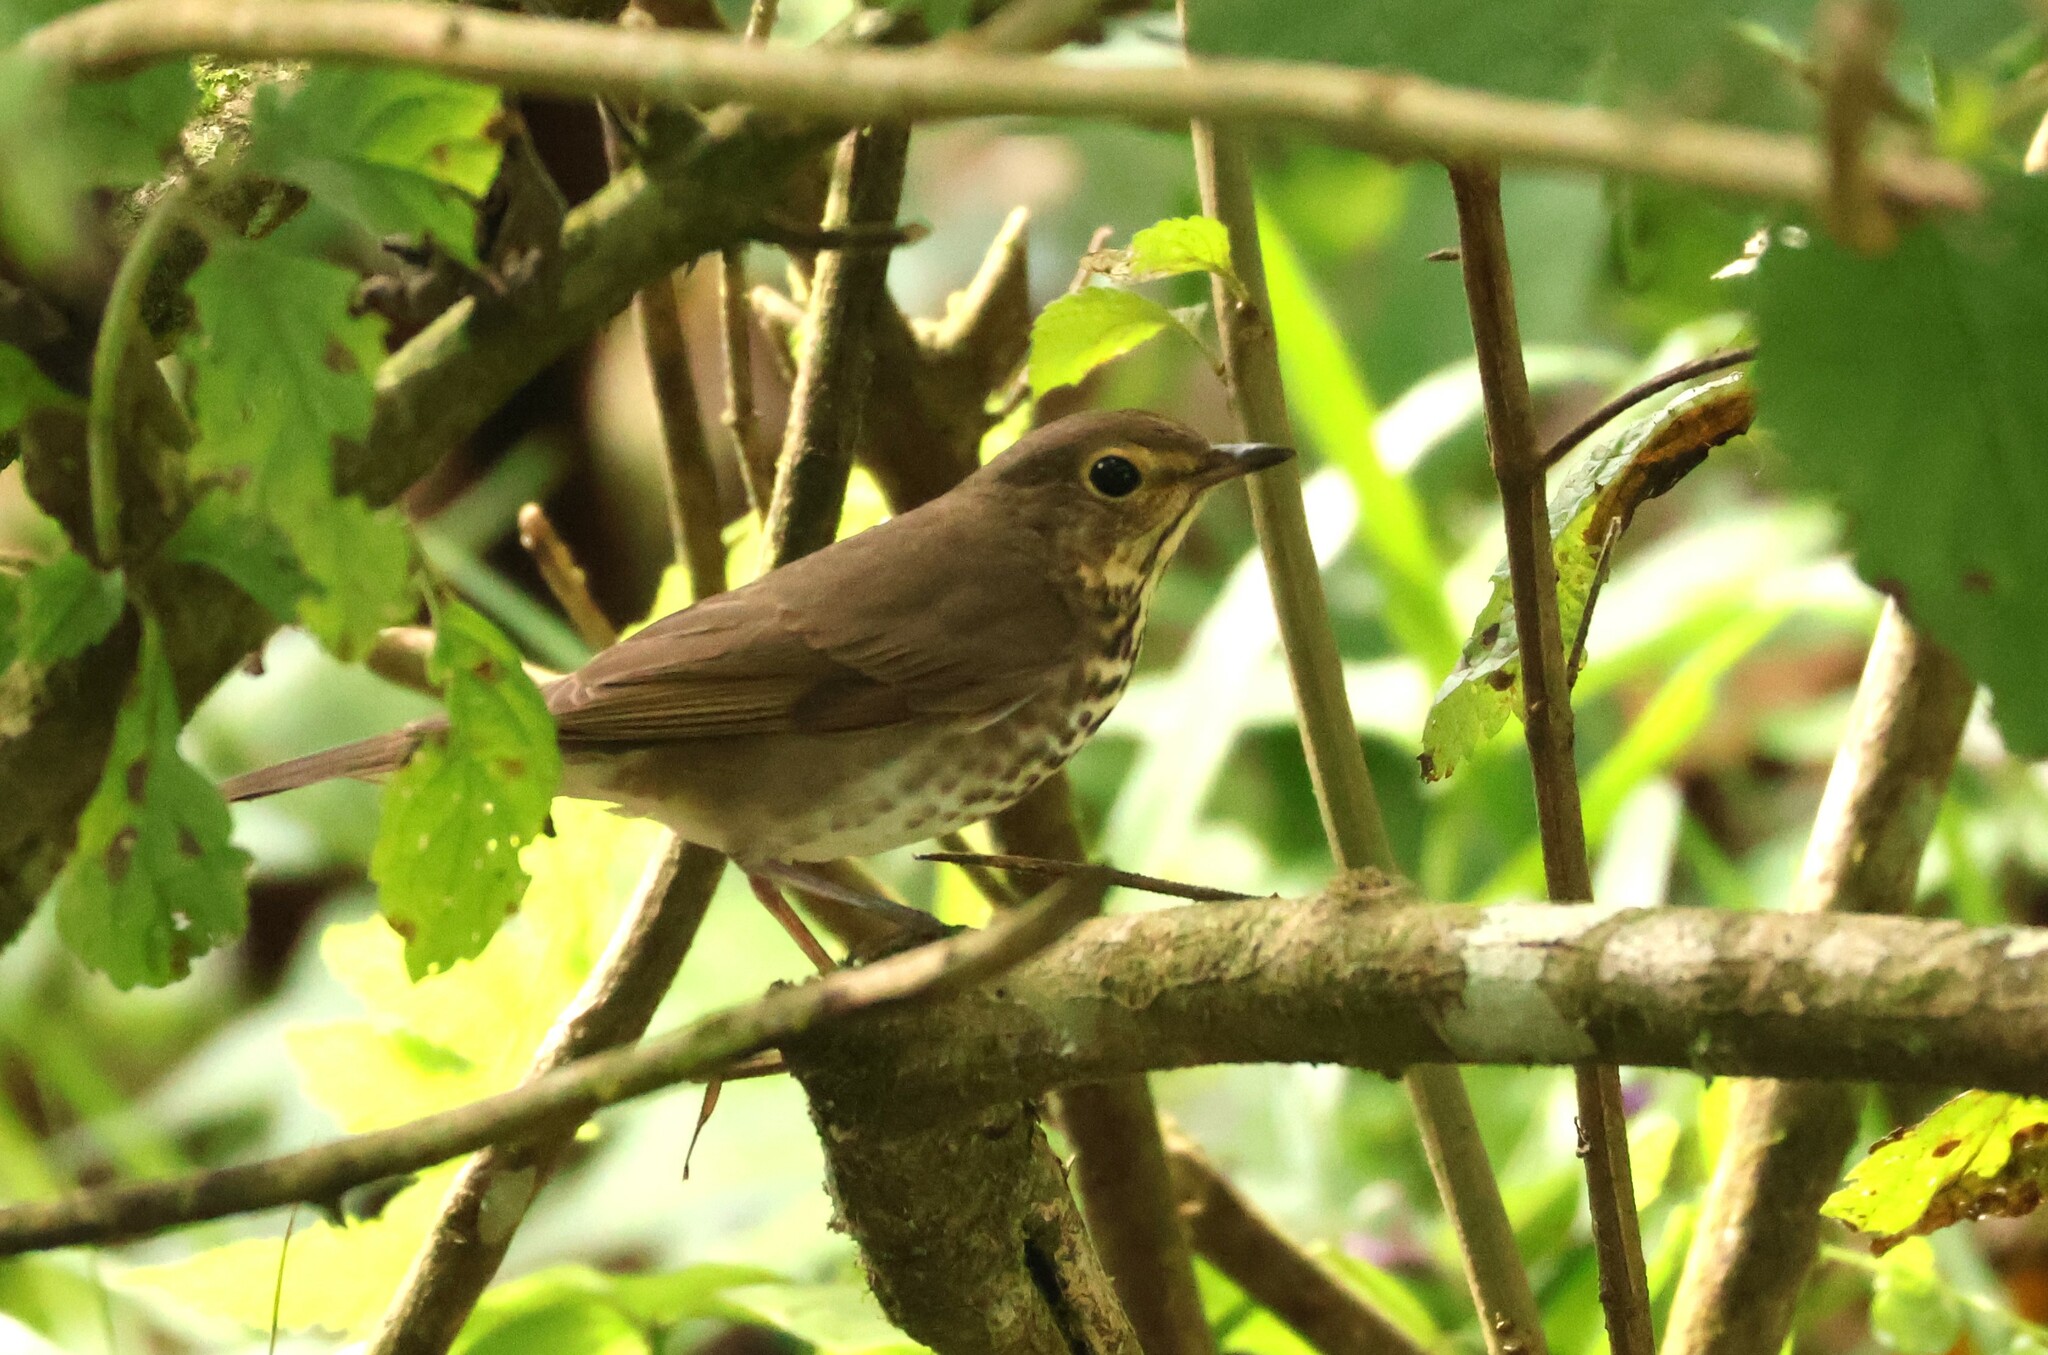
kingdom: Animalia
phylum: Chordata
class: Aves
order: Passeriformes
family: Turdidae
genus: Catharus
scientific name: Catharus ustulatus
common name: Swainson's thrush
